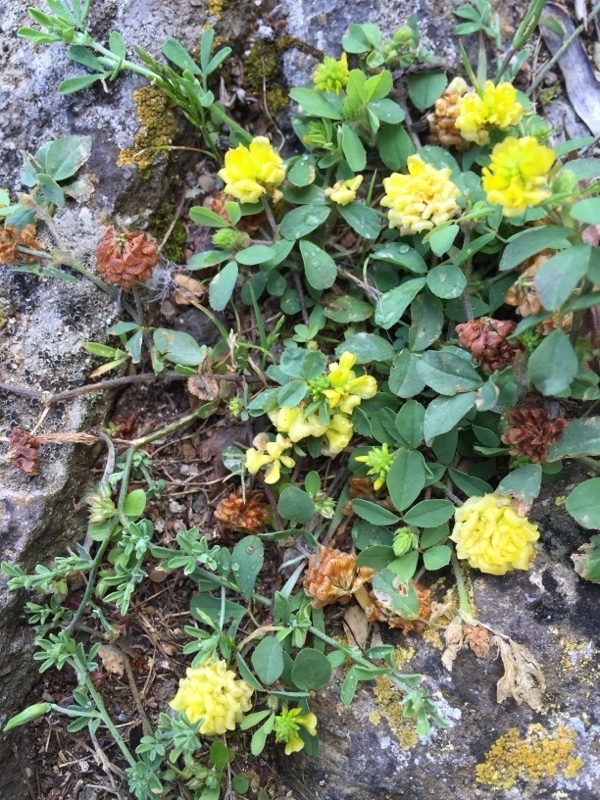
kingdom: Plantae
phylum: Tracheophyta
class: Magnoliopsida
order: Fabales
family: Fabaceae
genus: Trifolium
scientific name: Trifolium campestre
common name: Field clover
